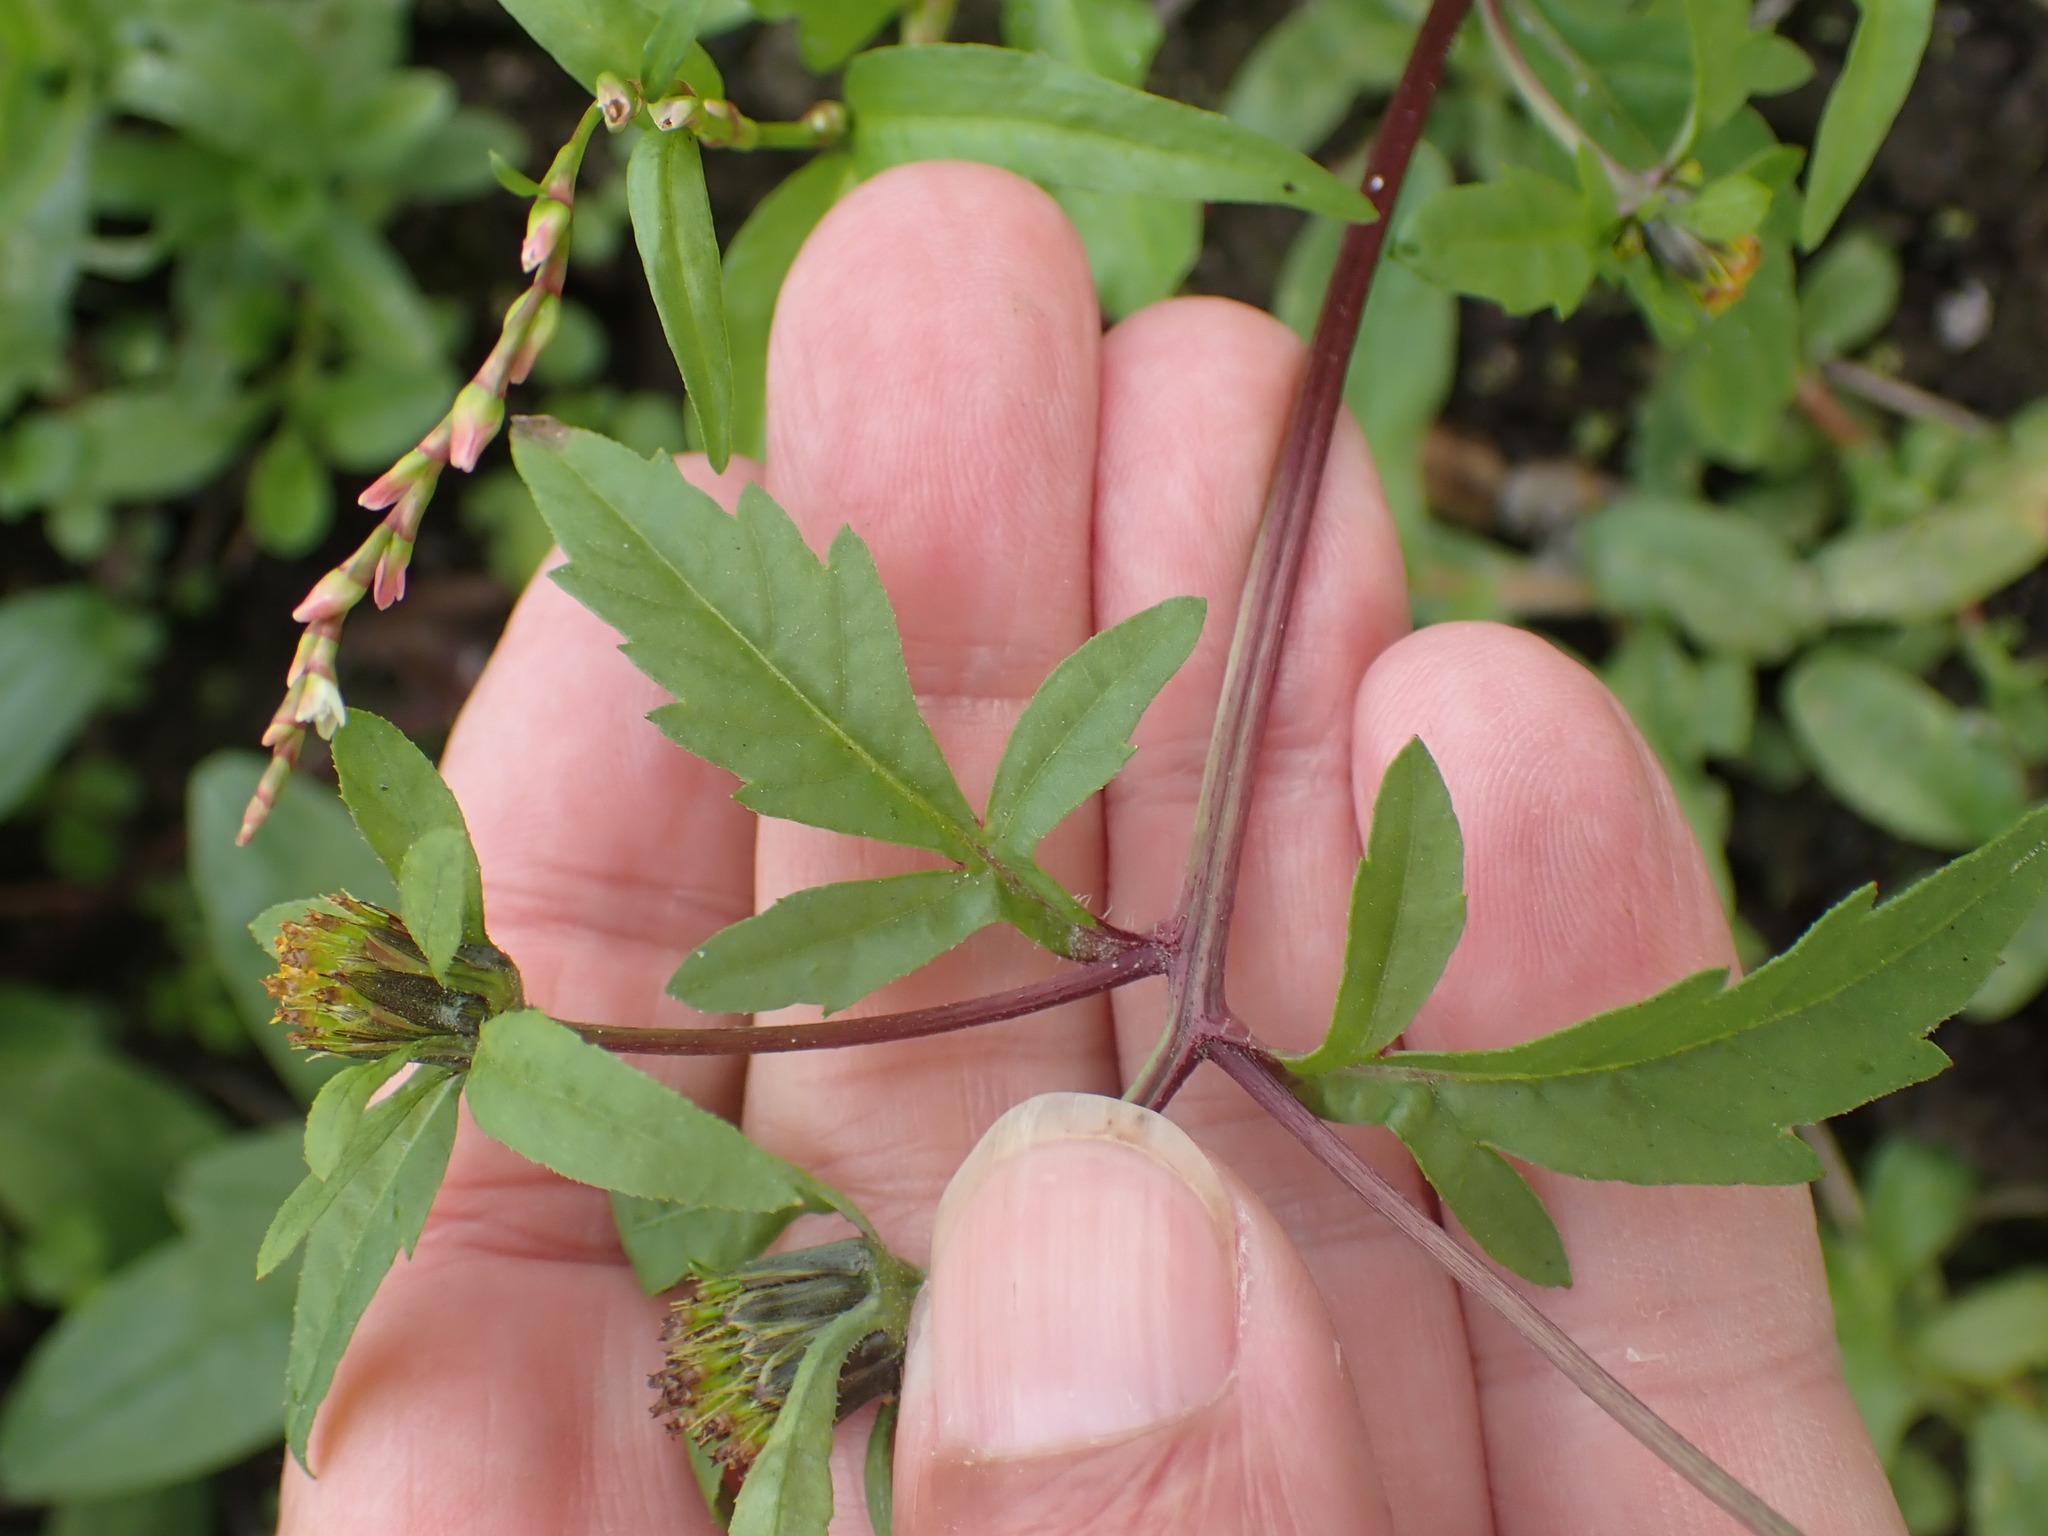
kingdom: Plantae
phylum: Tracheophyta
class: Magnoliopsida
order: Asterales
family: Asteraceae
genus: Bidens
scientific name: Bidens tripartita
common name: Trifid bur-marigold
